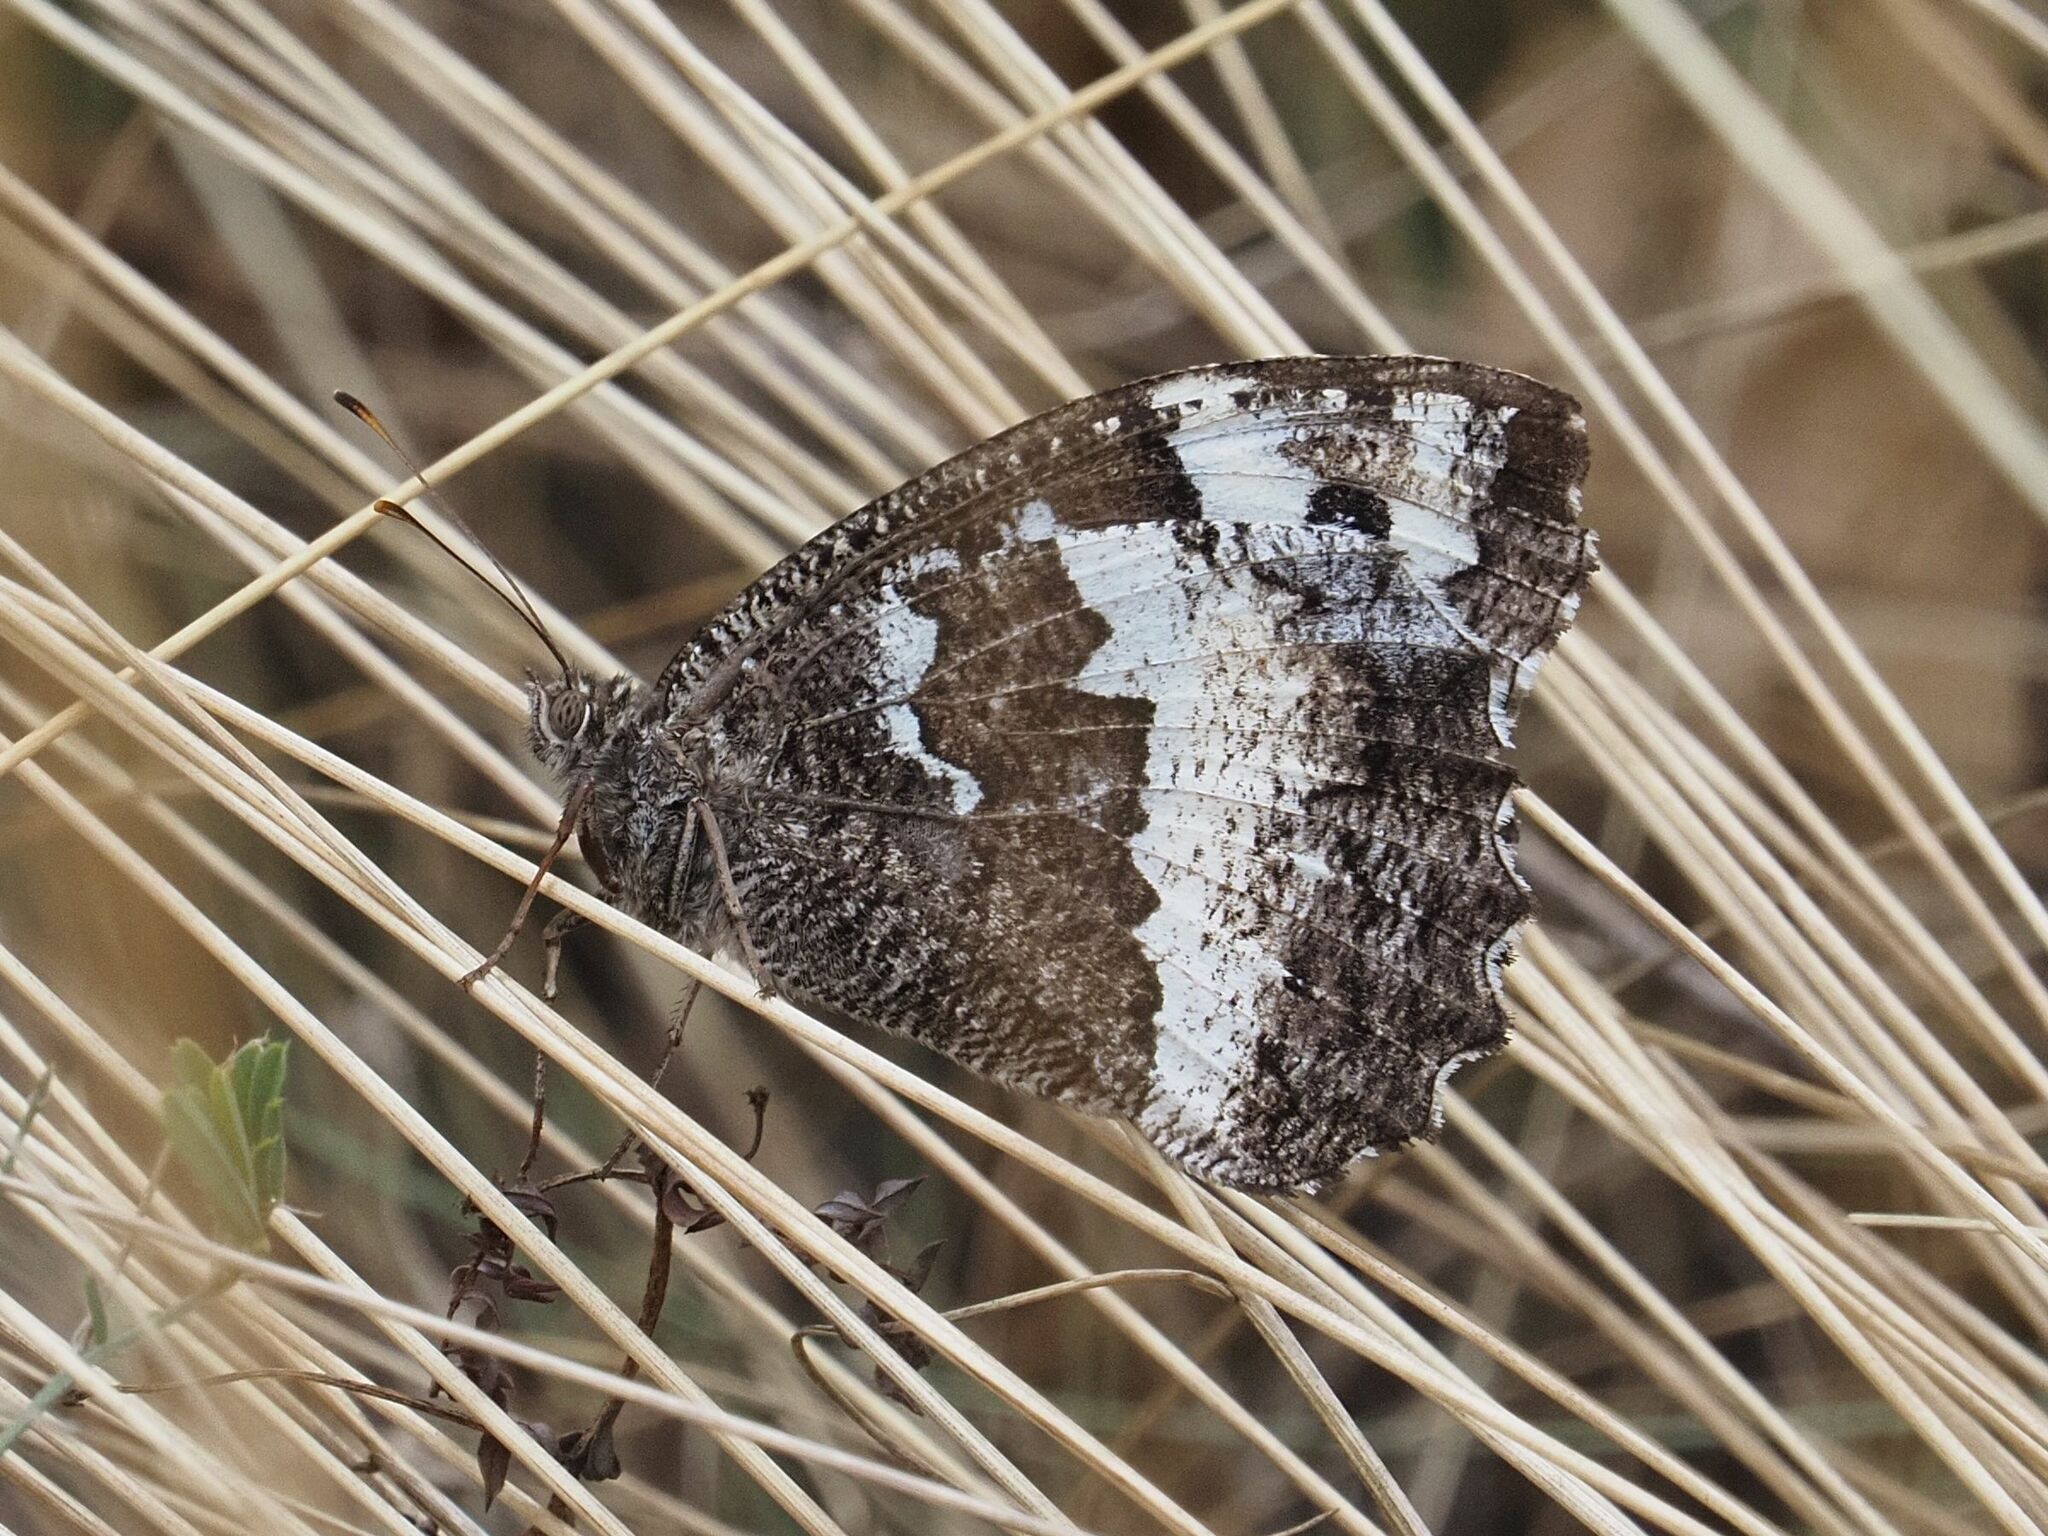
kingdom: Animalia
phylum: Arthropoda
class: Insecta
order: Lepidoptera
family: Lycaenidae
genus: Loweia
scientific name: Loweia tityrus
